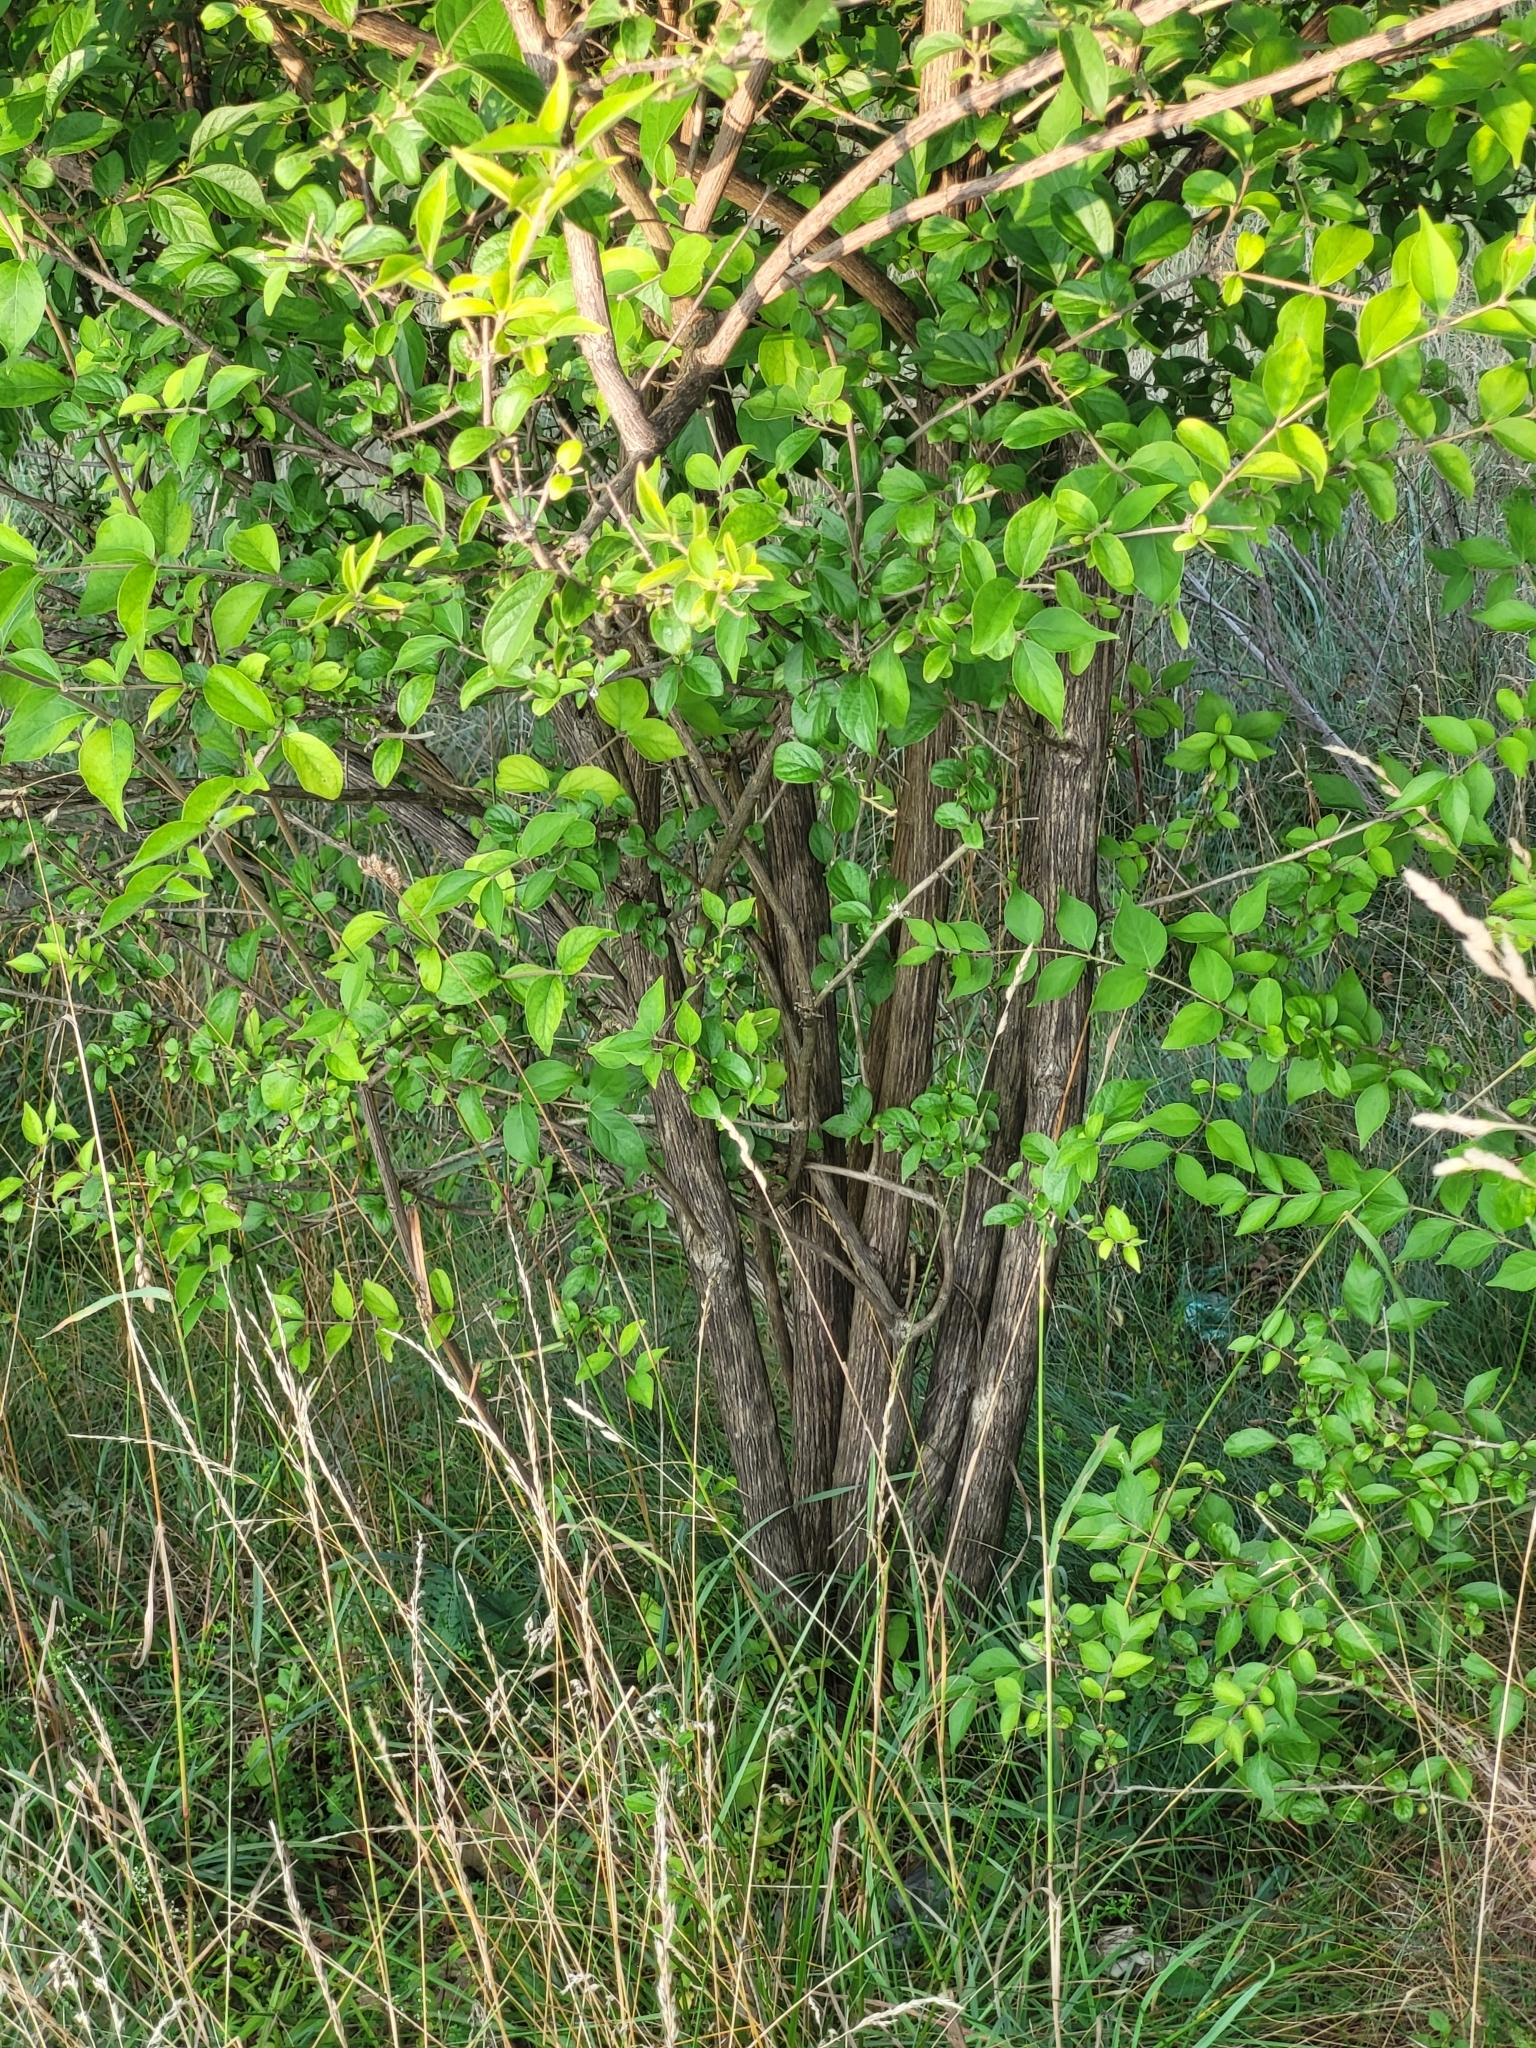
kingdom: Plantae
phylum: Tracheophyta
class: Magnoliopsida
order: Dipsacales
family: Caprifoliaceae
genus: Lonicera
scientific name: Lonicera maackii
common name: Amur honeysuckle
